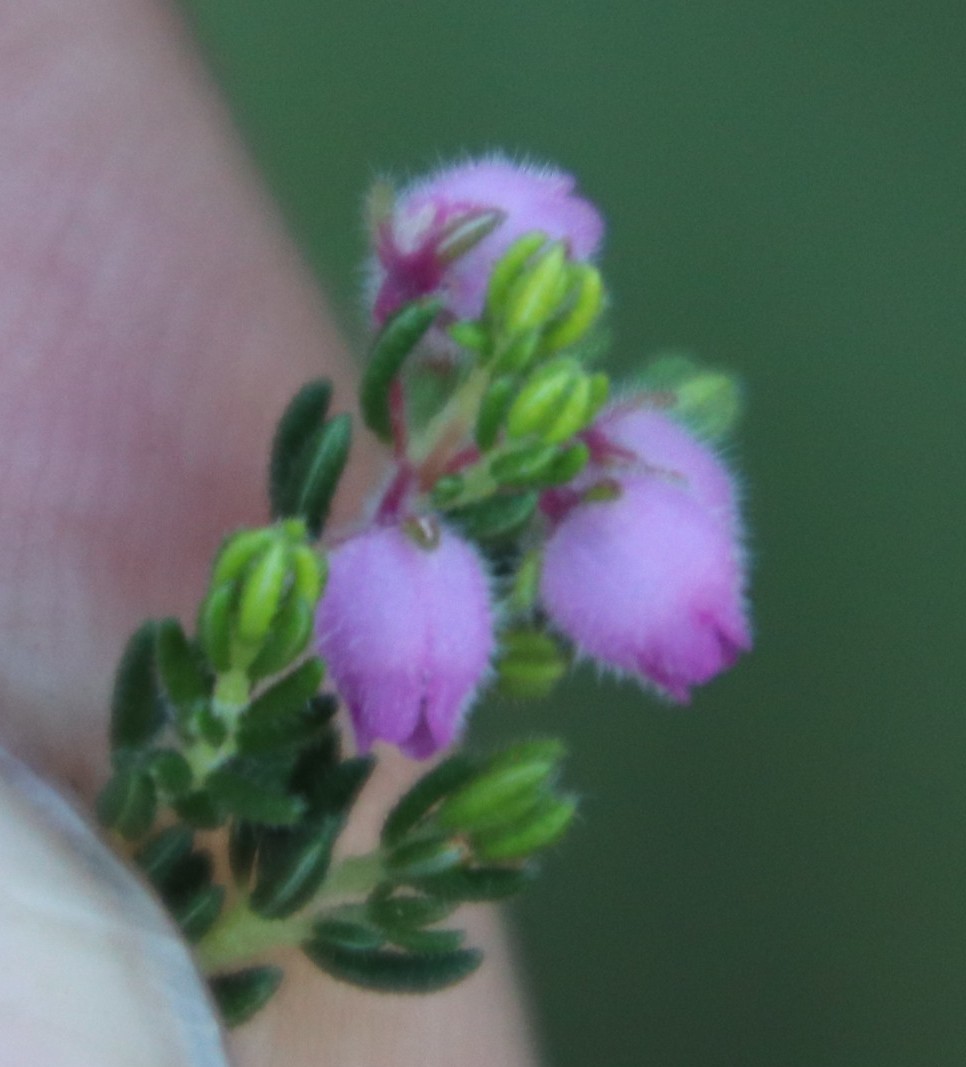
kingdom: Plantae
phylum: Tracheophyta
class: Magnoliopsida
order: Ericales
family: Ericaceae
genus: Erica
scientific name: Erica hirtiflora
